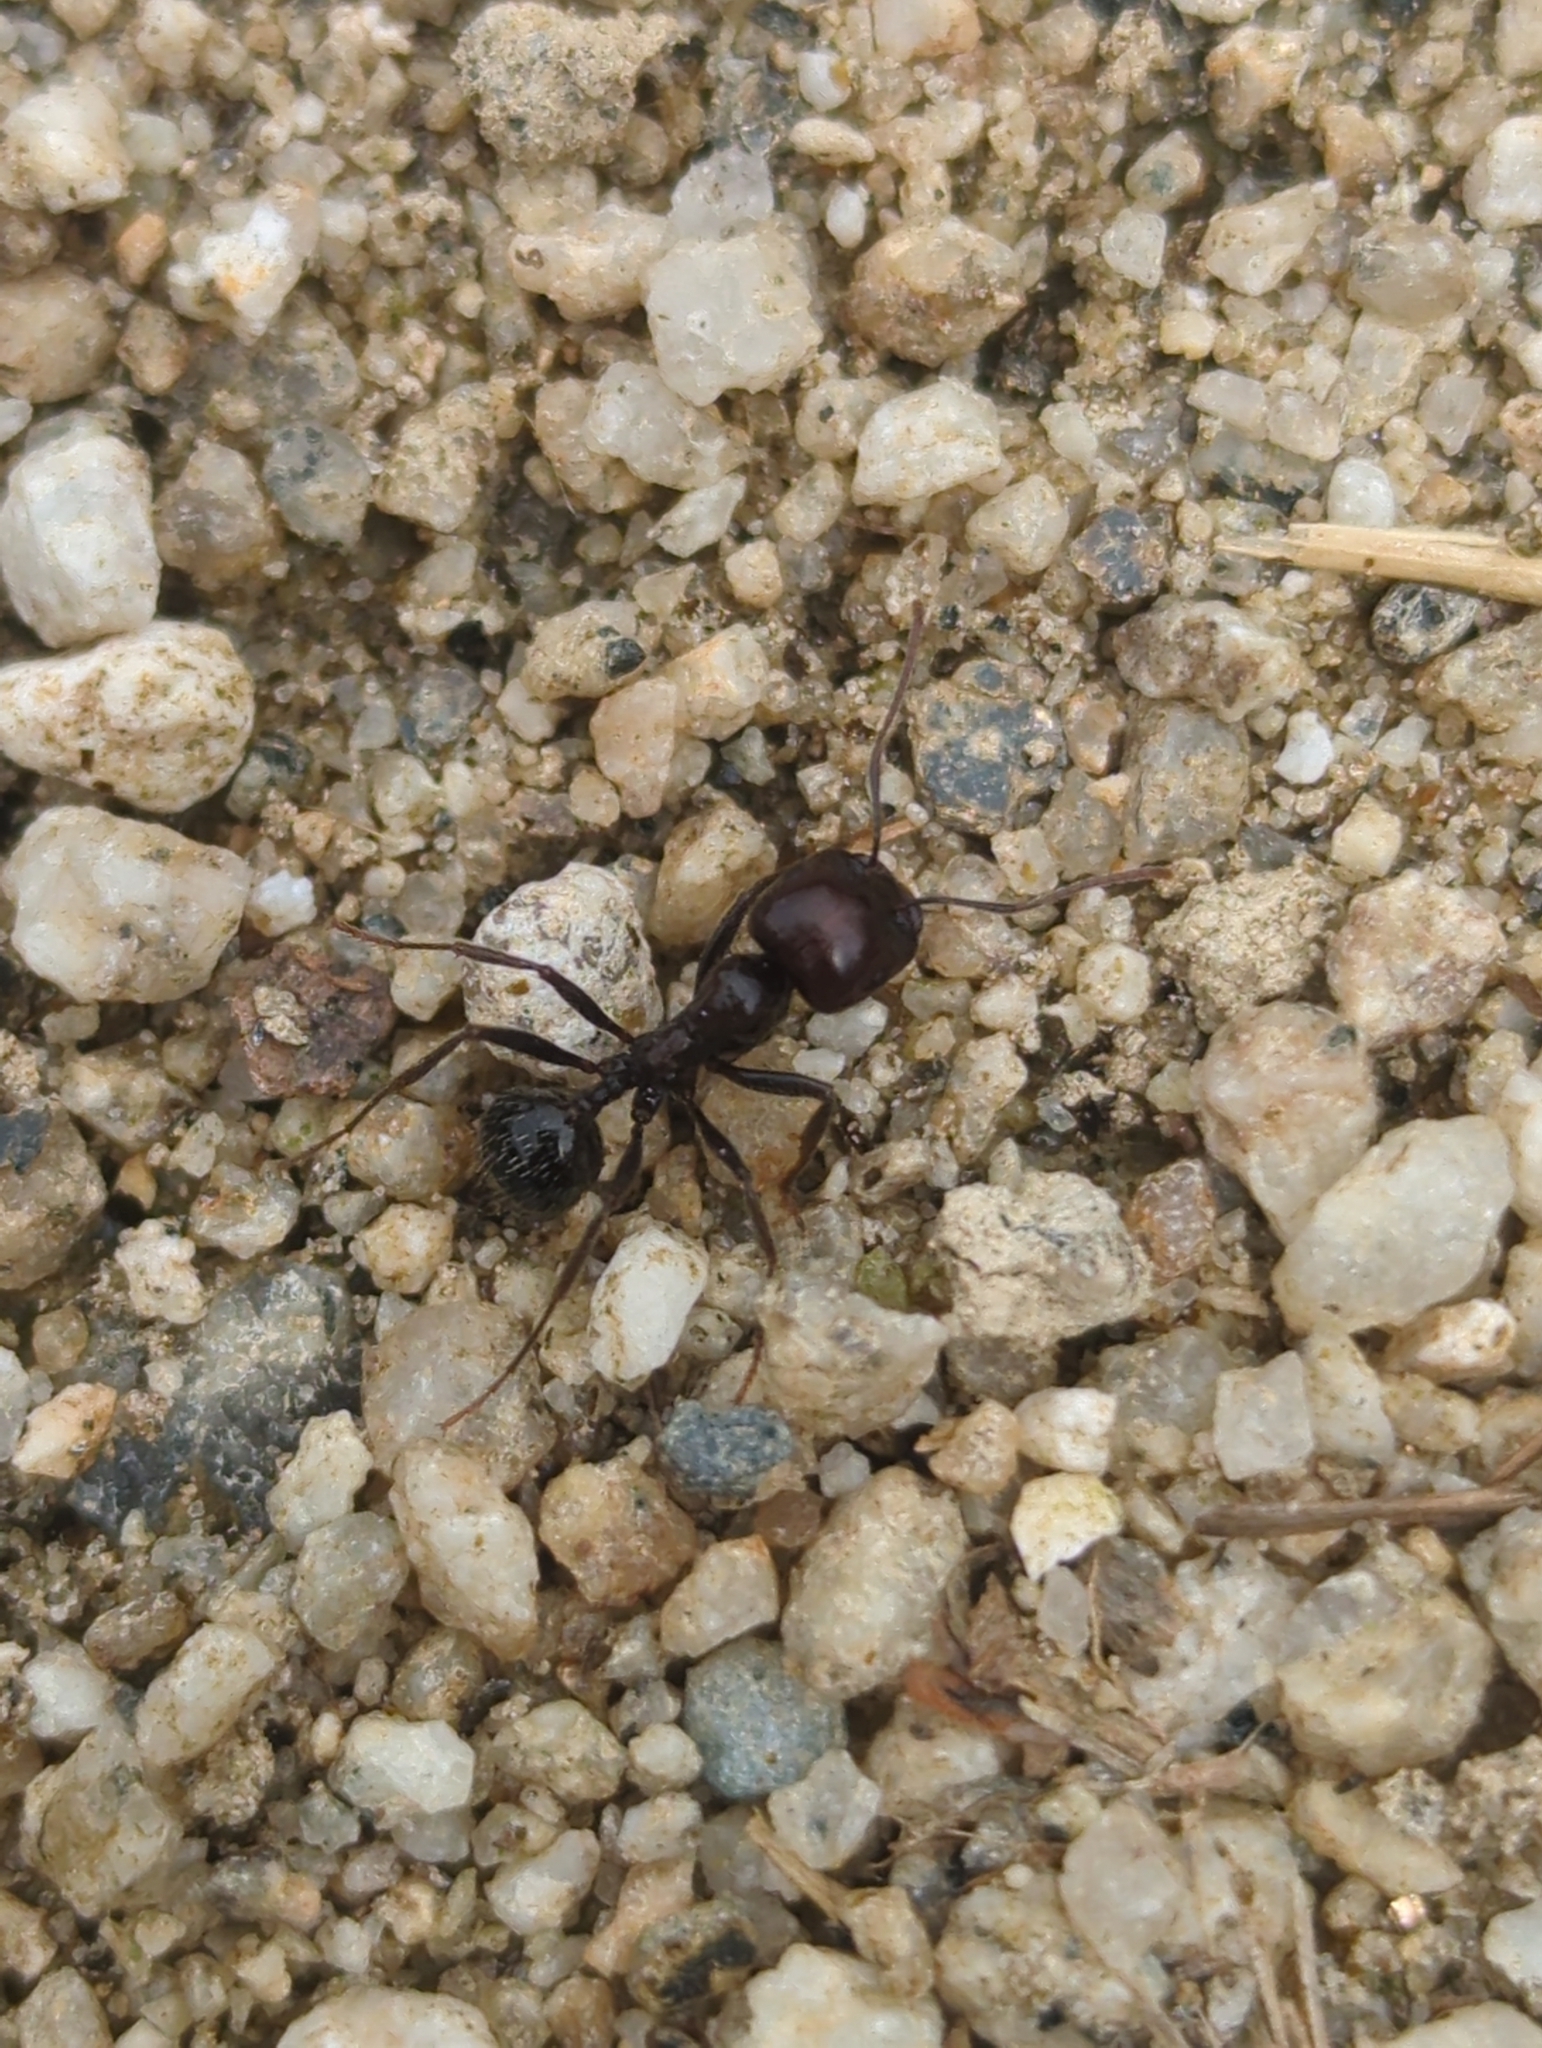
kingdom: Animalia
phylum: Arthropoda
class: Insecta
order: Hymenoptera
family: Formicidae
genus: Messor
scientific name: Messor barbarus
